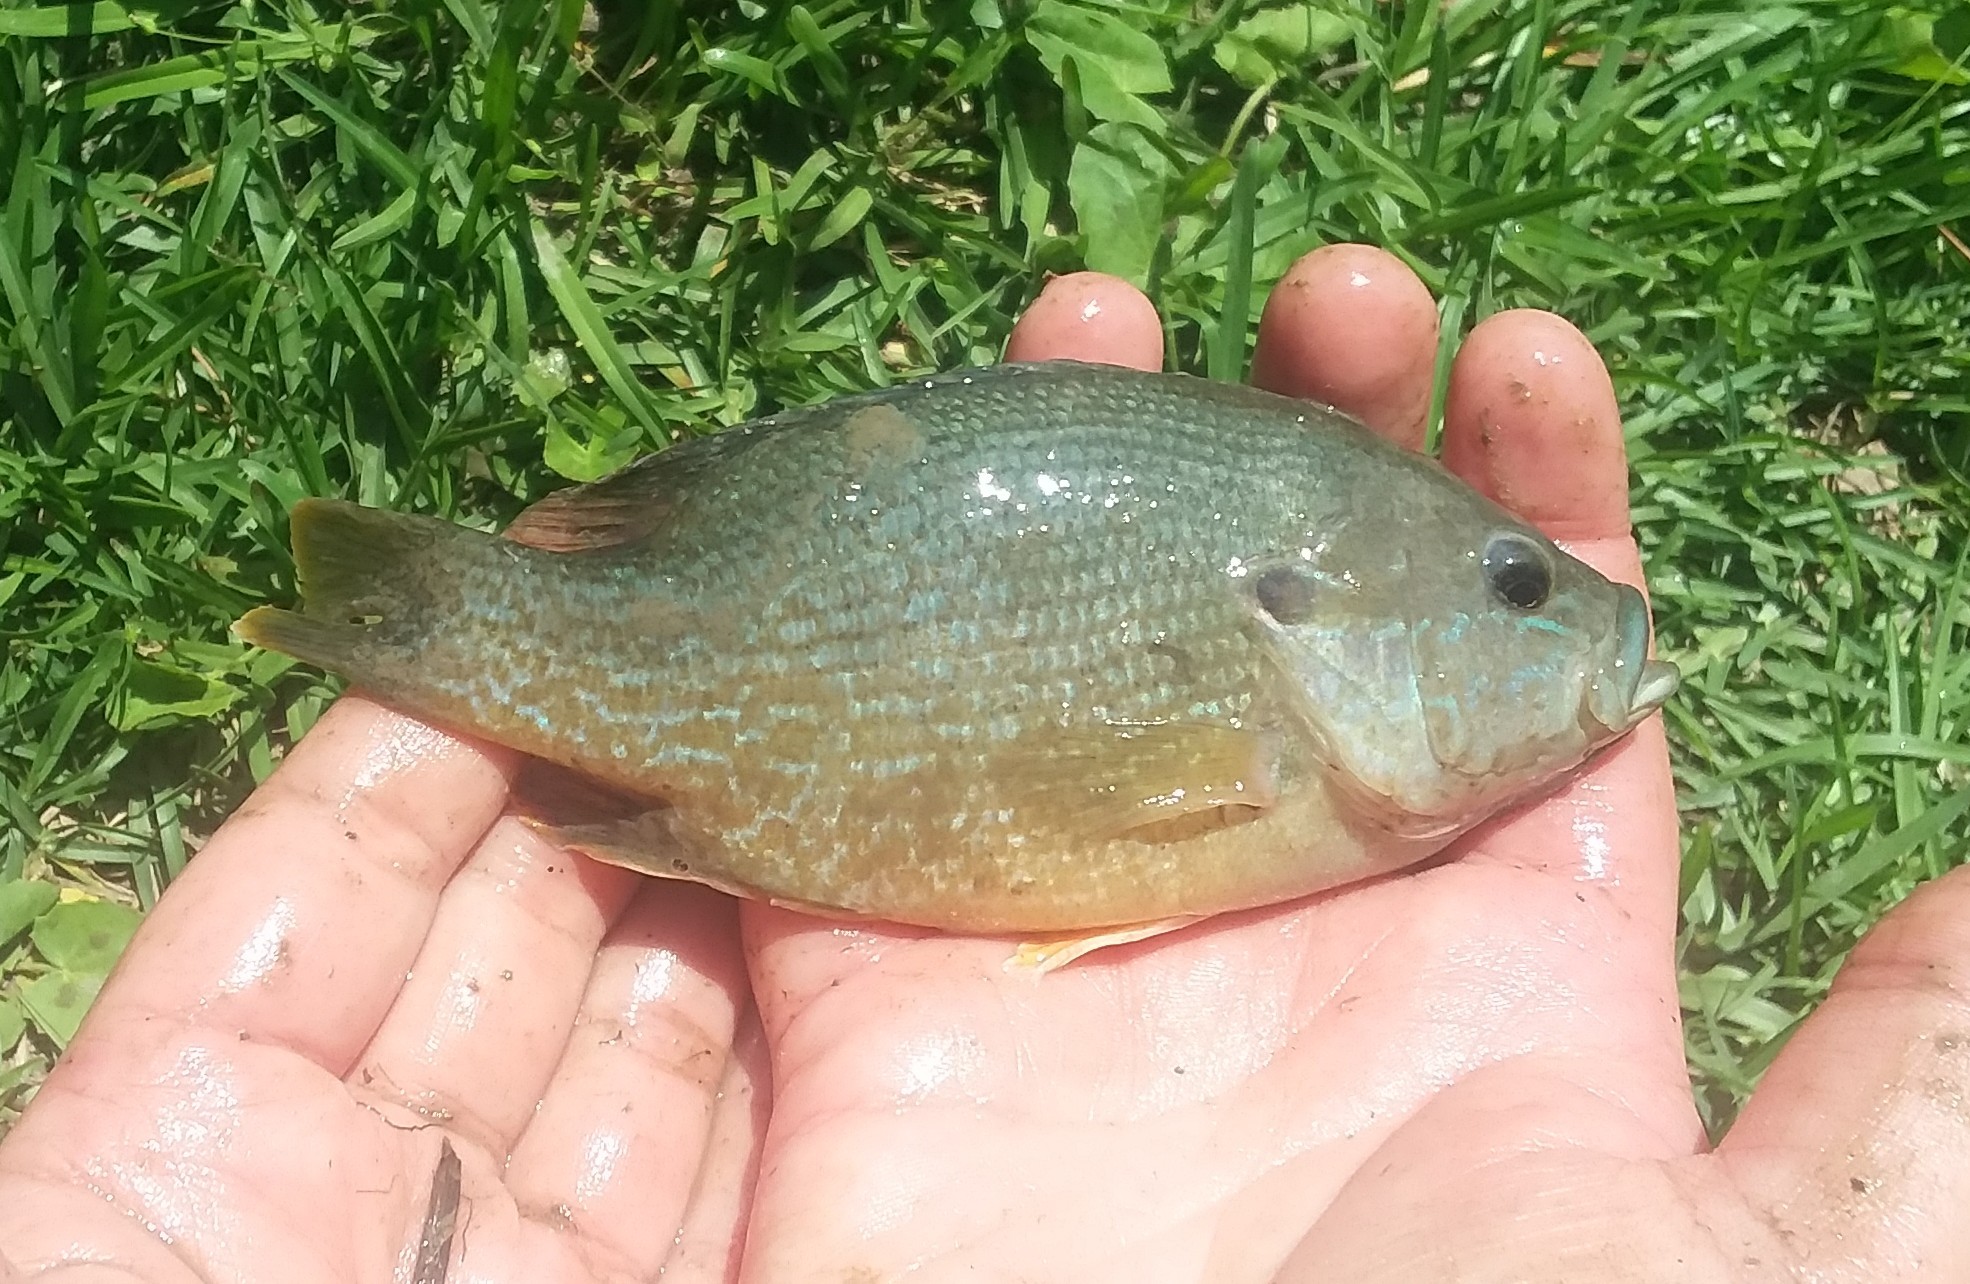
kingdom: Animalia
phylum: Chordata
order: Perciformes
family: Centrarchidae
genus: Lepomis
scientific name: Lepomis cyanellus
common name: Green sunfish
